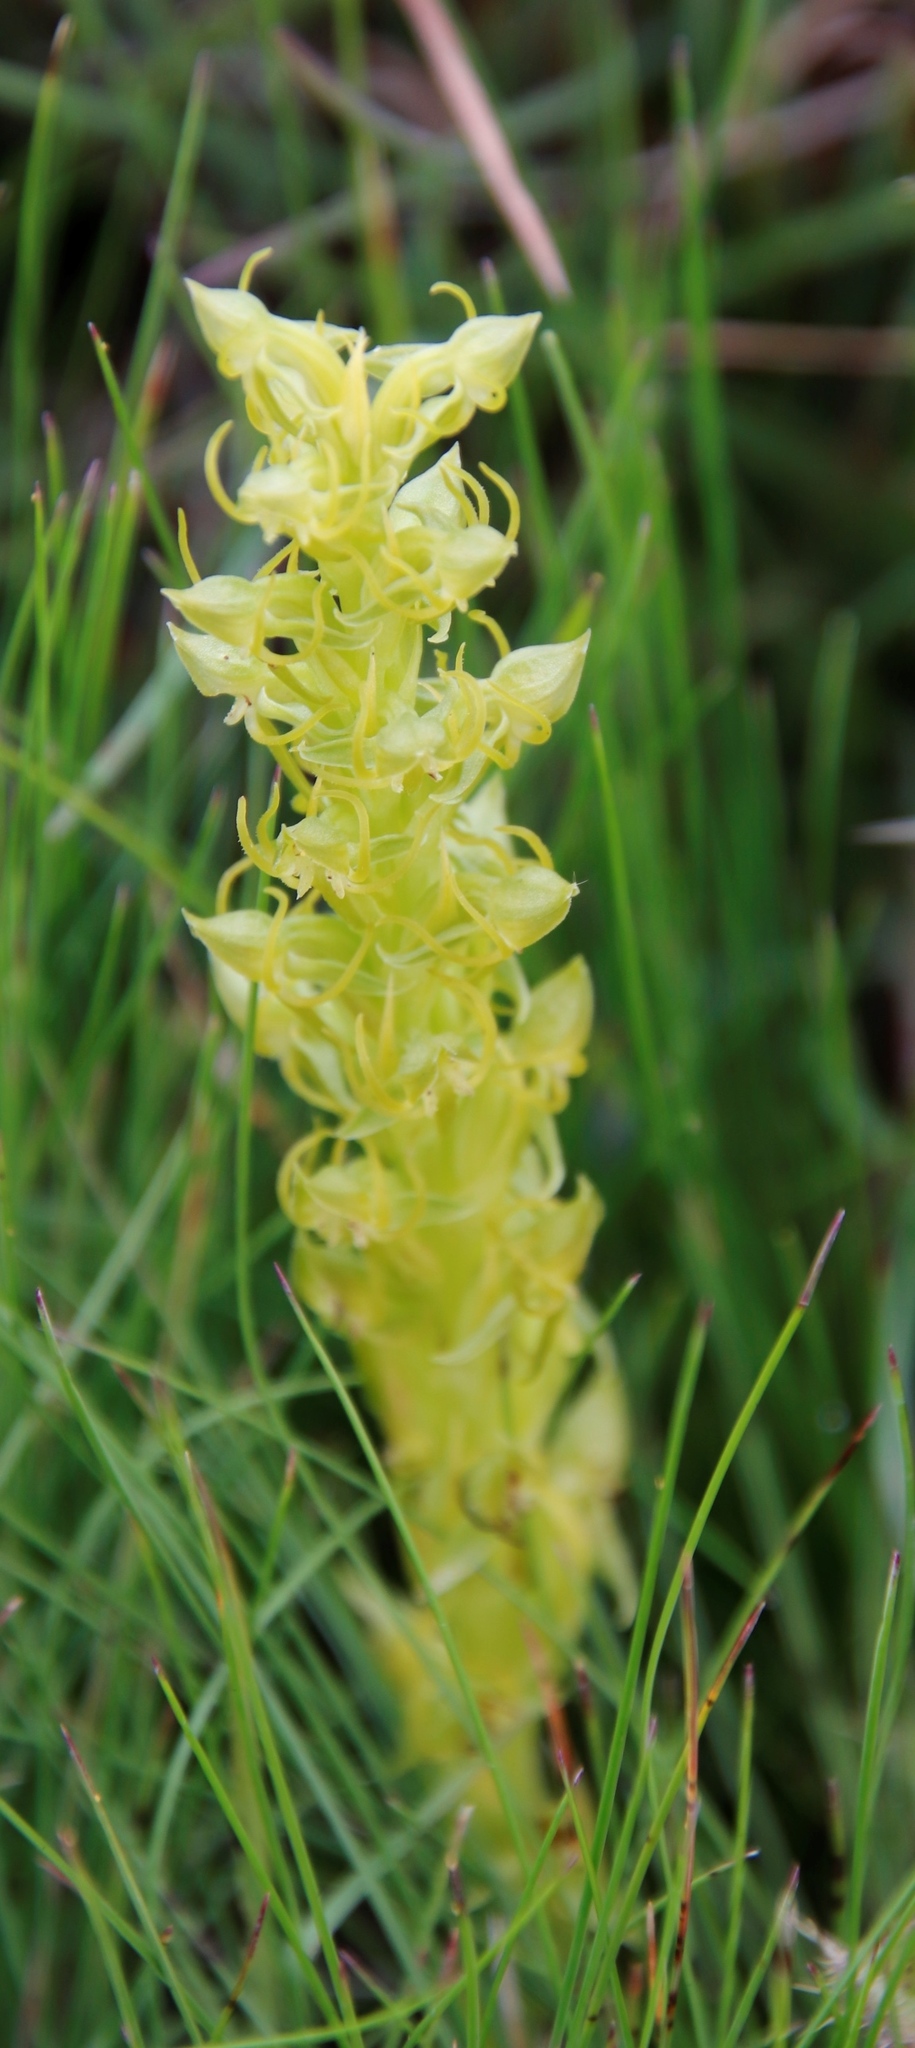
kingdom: Plantae
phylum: Tracheophyta
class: Liliopsida
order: Asparagales
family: Orchidaceae
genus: Habenaria
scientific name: Habenaria lithophila
